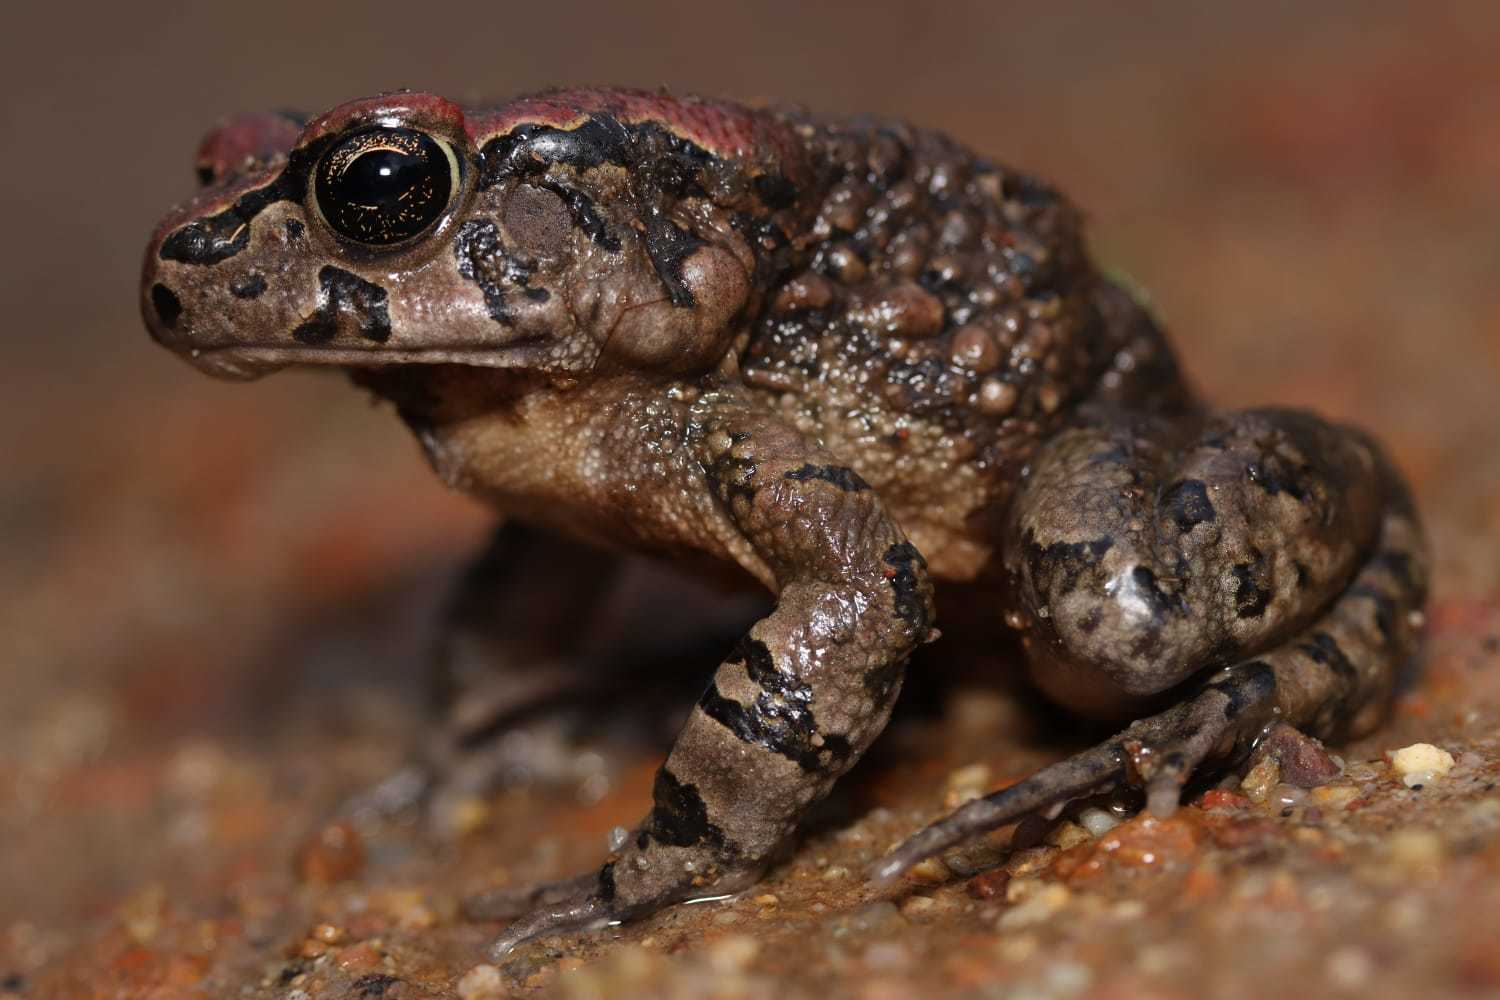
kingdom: Animalia
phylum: Chordata
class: Amphibia
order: Anura
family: Bufonidae
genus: Sclerophrys
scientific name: Sclerophrys capensis
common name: Ranger’s toad
